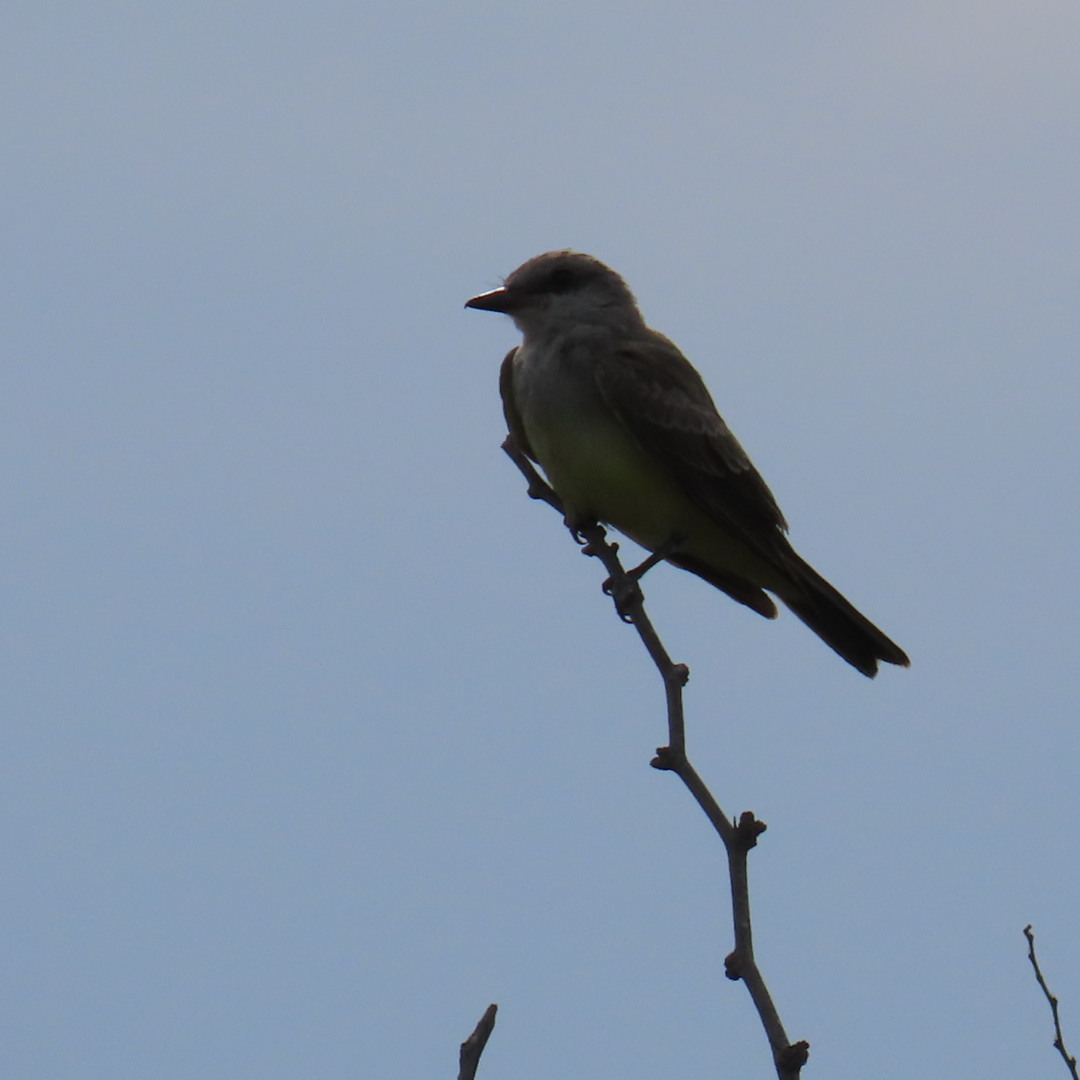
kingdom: Animalia
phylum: Chordata
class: Aves
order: Passeriformes
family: Tyrannidae
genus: Tyrannus
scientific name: Tyrannus verticalis
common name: Western kingbird
